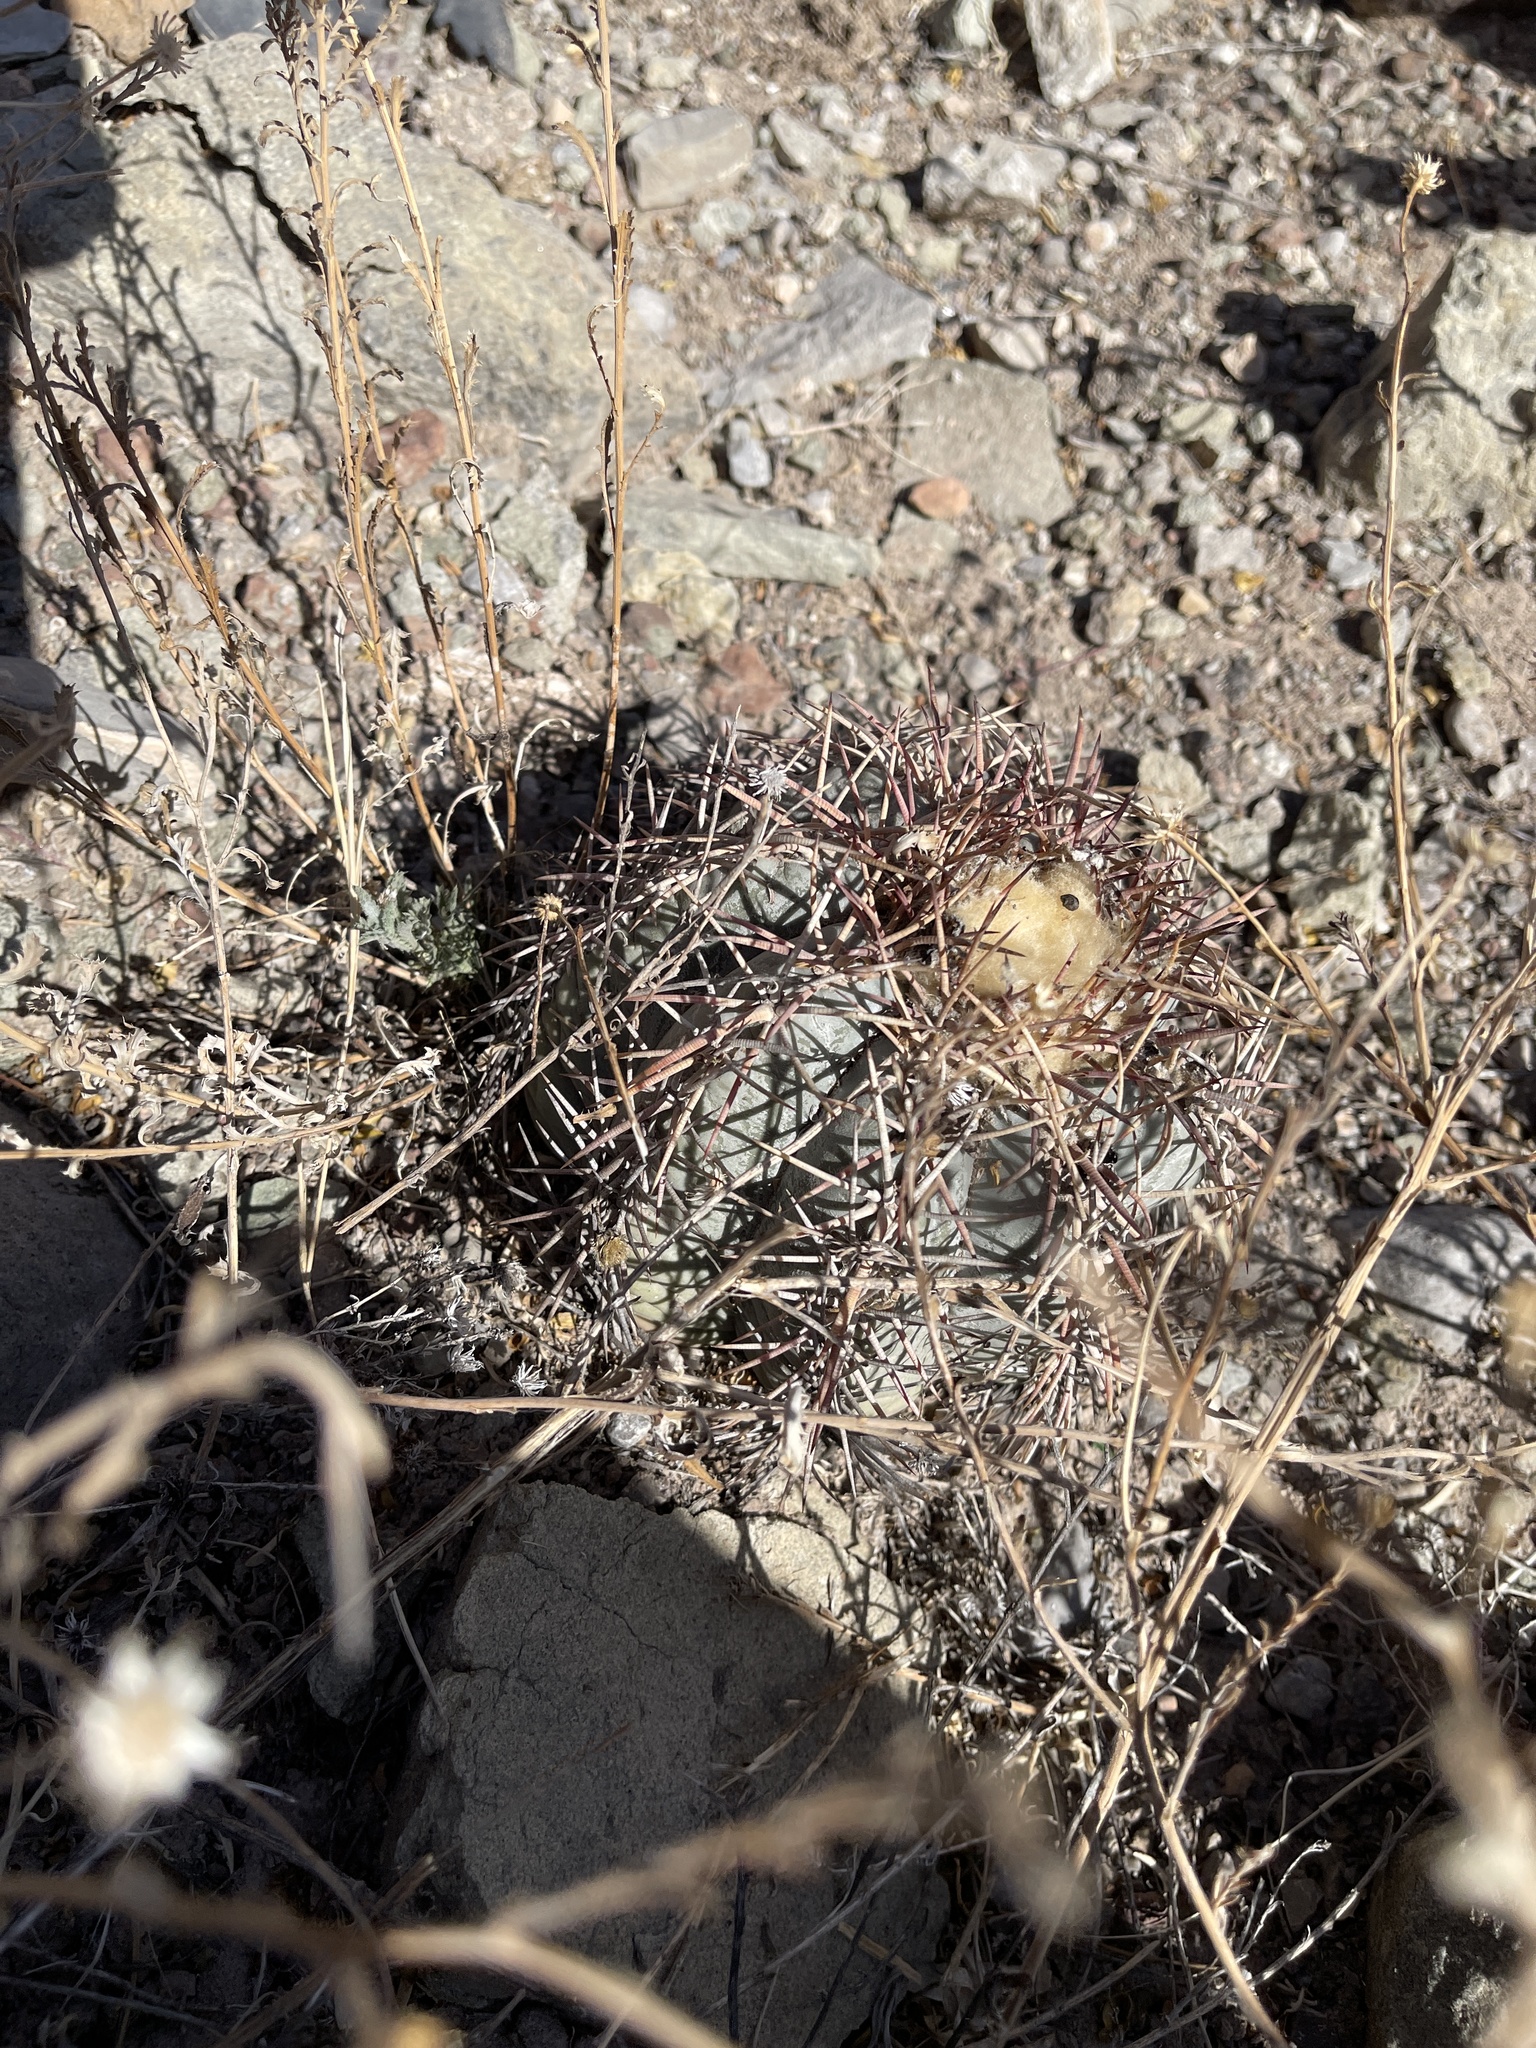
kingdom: Plantae
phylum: Tracheophyta
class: Magnoliopsida
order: Caryophyllales
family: Cactaceae
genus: Echinocactus
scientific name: Echinocactus horizonthalonius
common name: Devilshead
